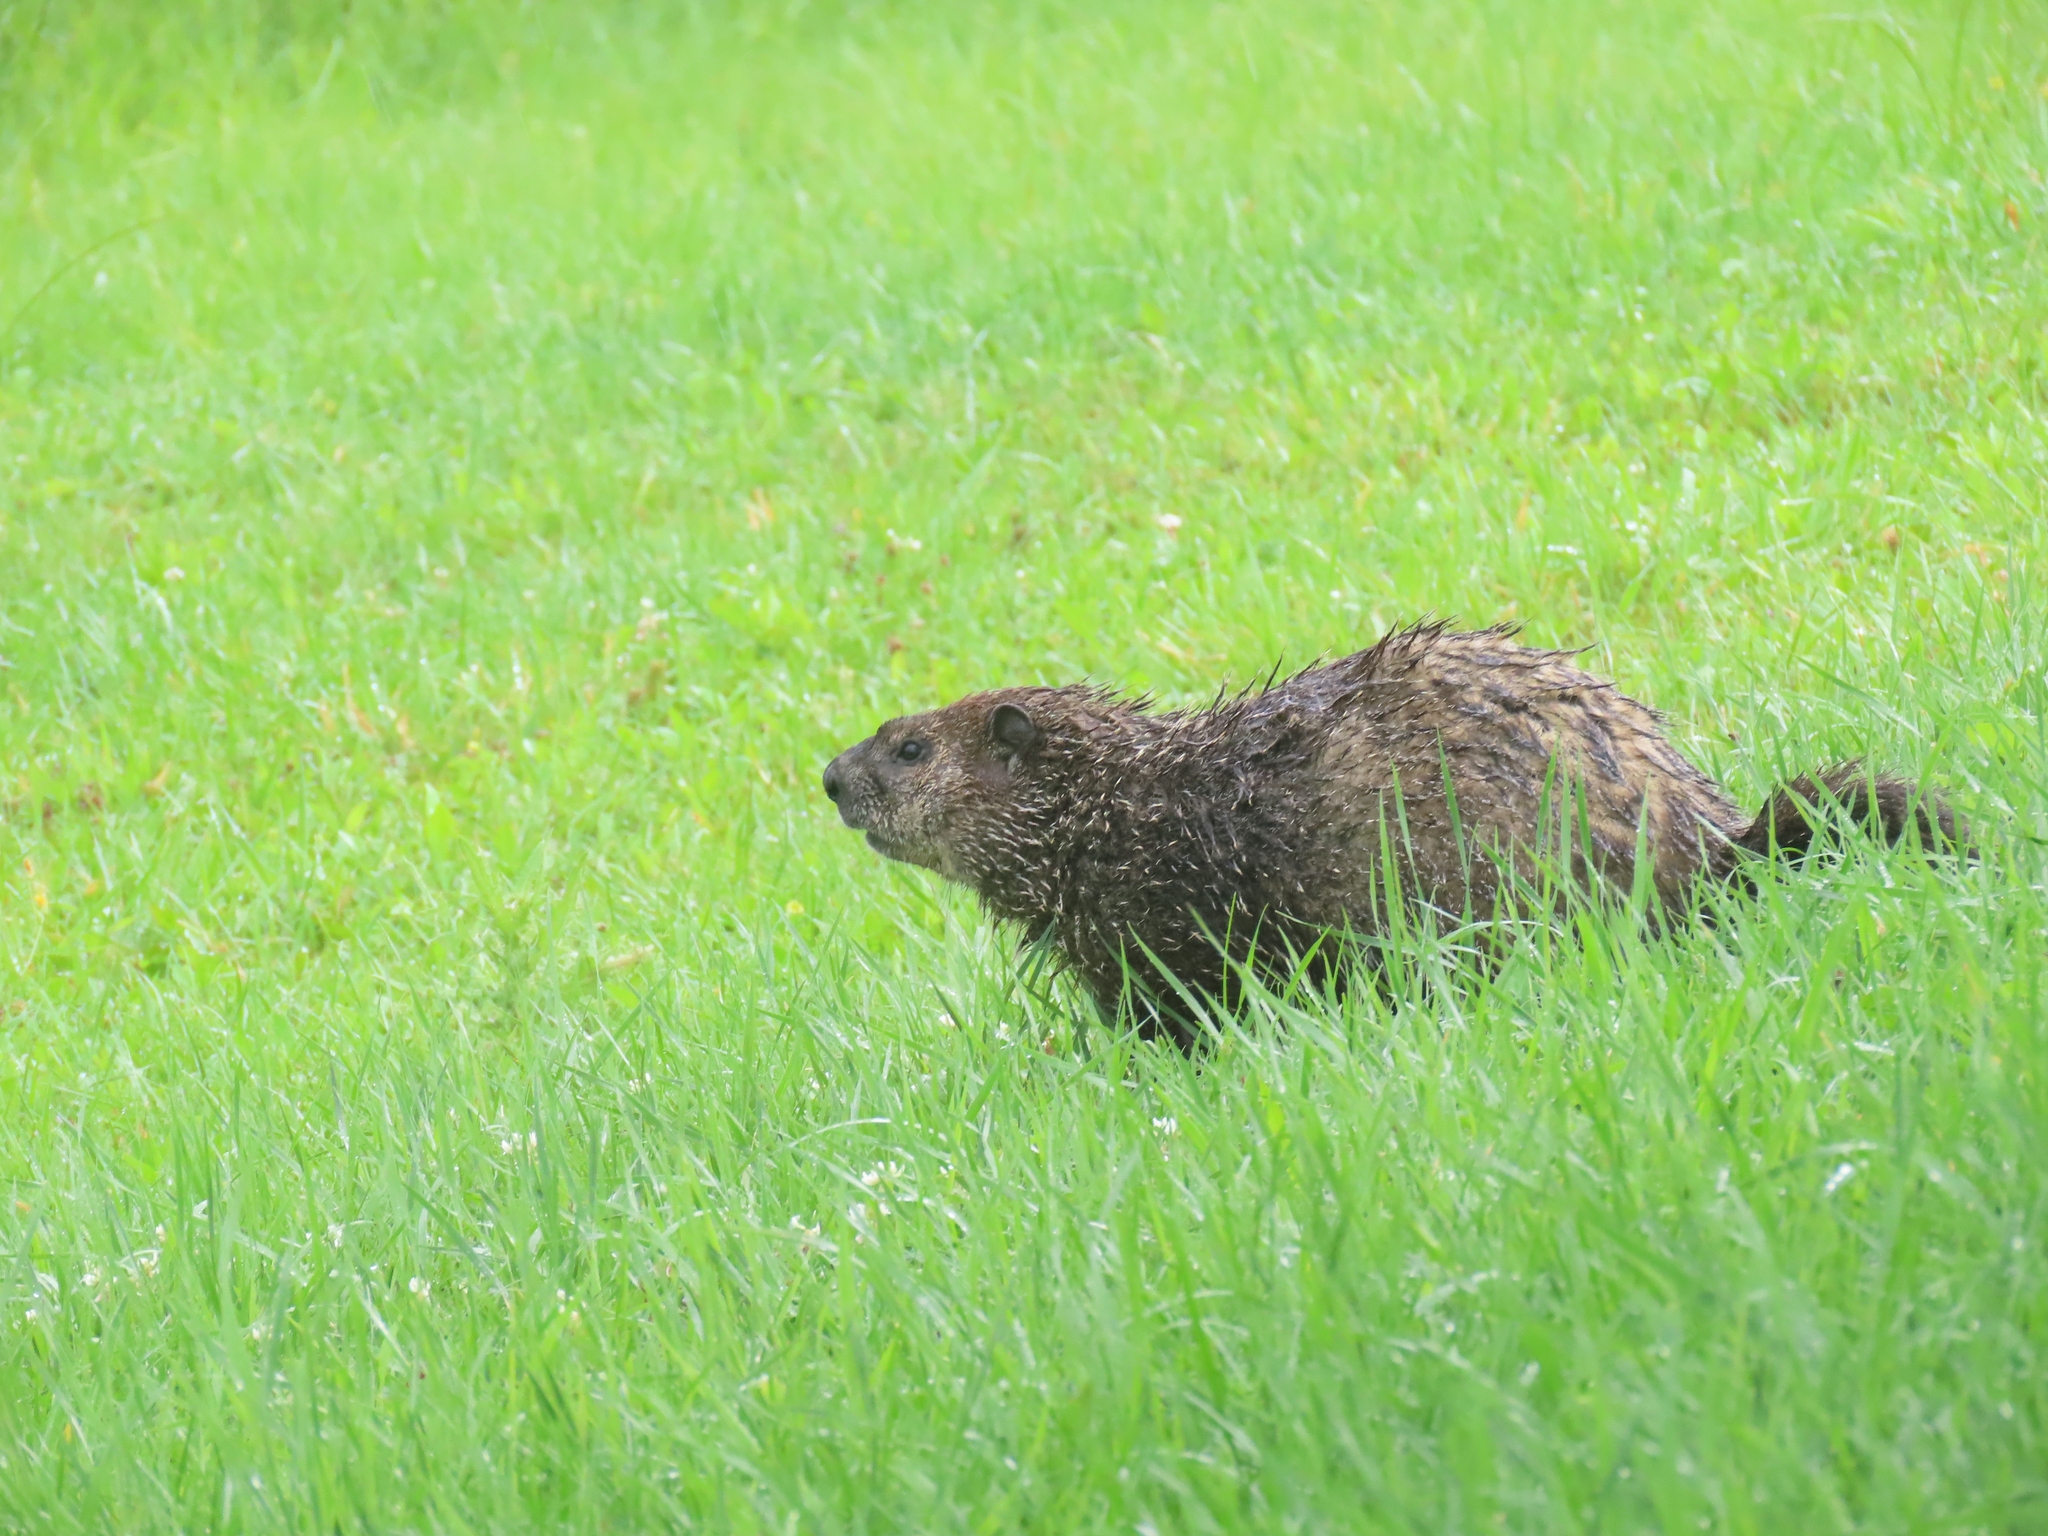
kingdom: Animalia
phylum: Chordata
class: Mammalia
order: Rodentia
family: Sciuridae
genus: Marmota
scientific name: Marmota monax
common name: Groundhog
